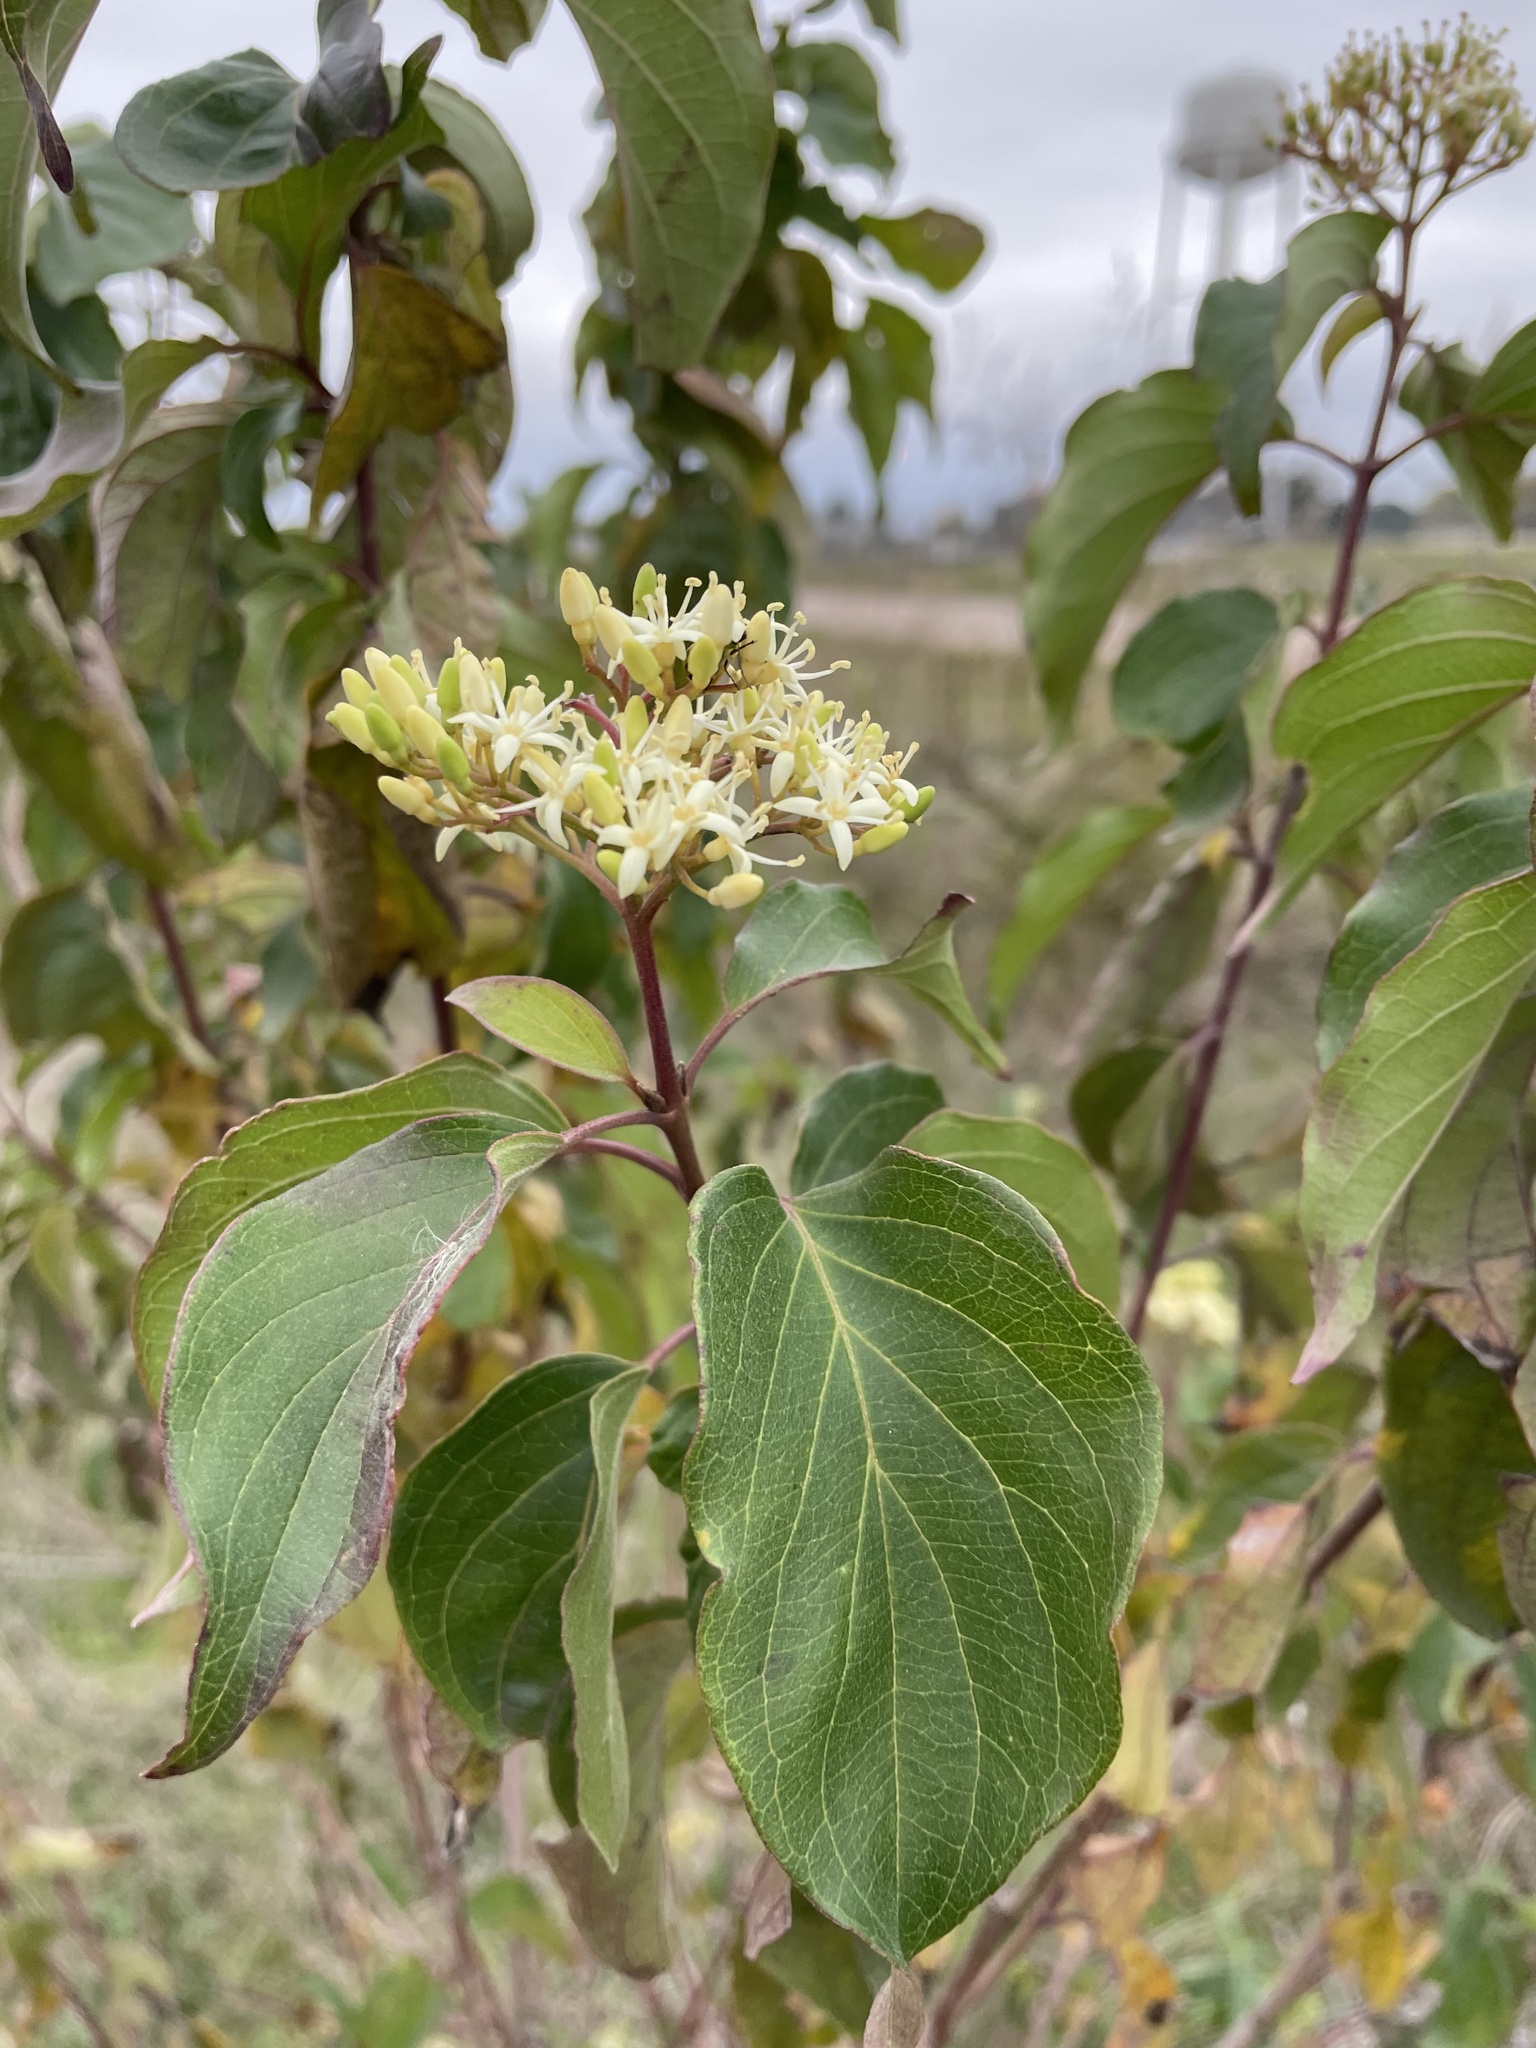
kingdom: Plantae
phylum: Tracheophyta
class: Magnoliopsida
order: Cornales
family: Cornaceae
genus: Cornus
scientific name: Cornus drummondii
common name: Rough-leaf dogwood
